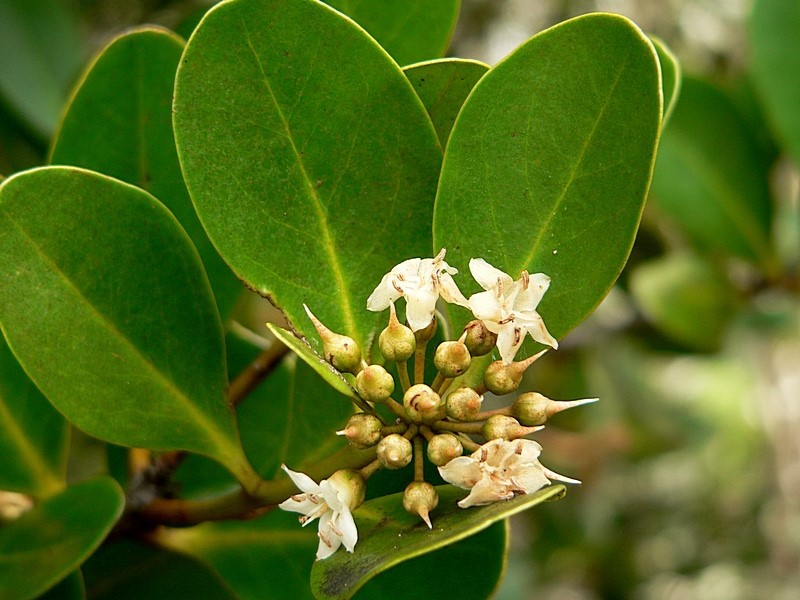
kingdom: Plantae
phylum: Tracheophyta
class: Magnoliopsida
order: Ericales
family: Primulaceae
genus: Aegiceras
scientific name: Aegiceras corniculatum
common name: River mangrove
